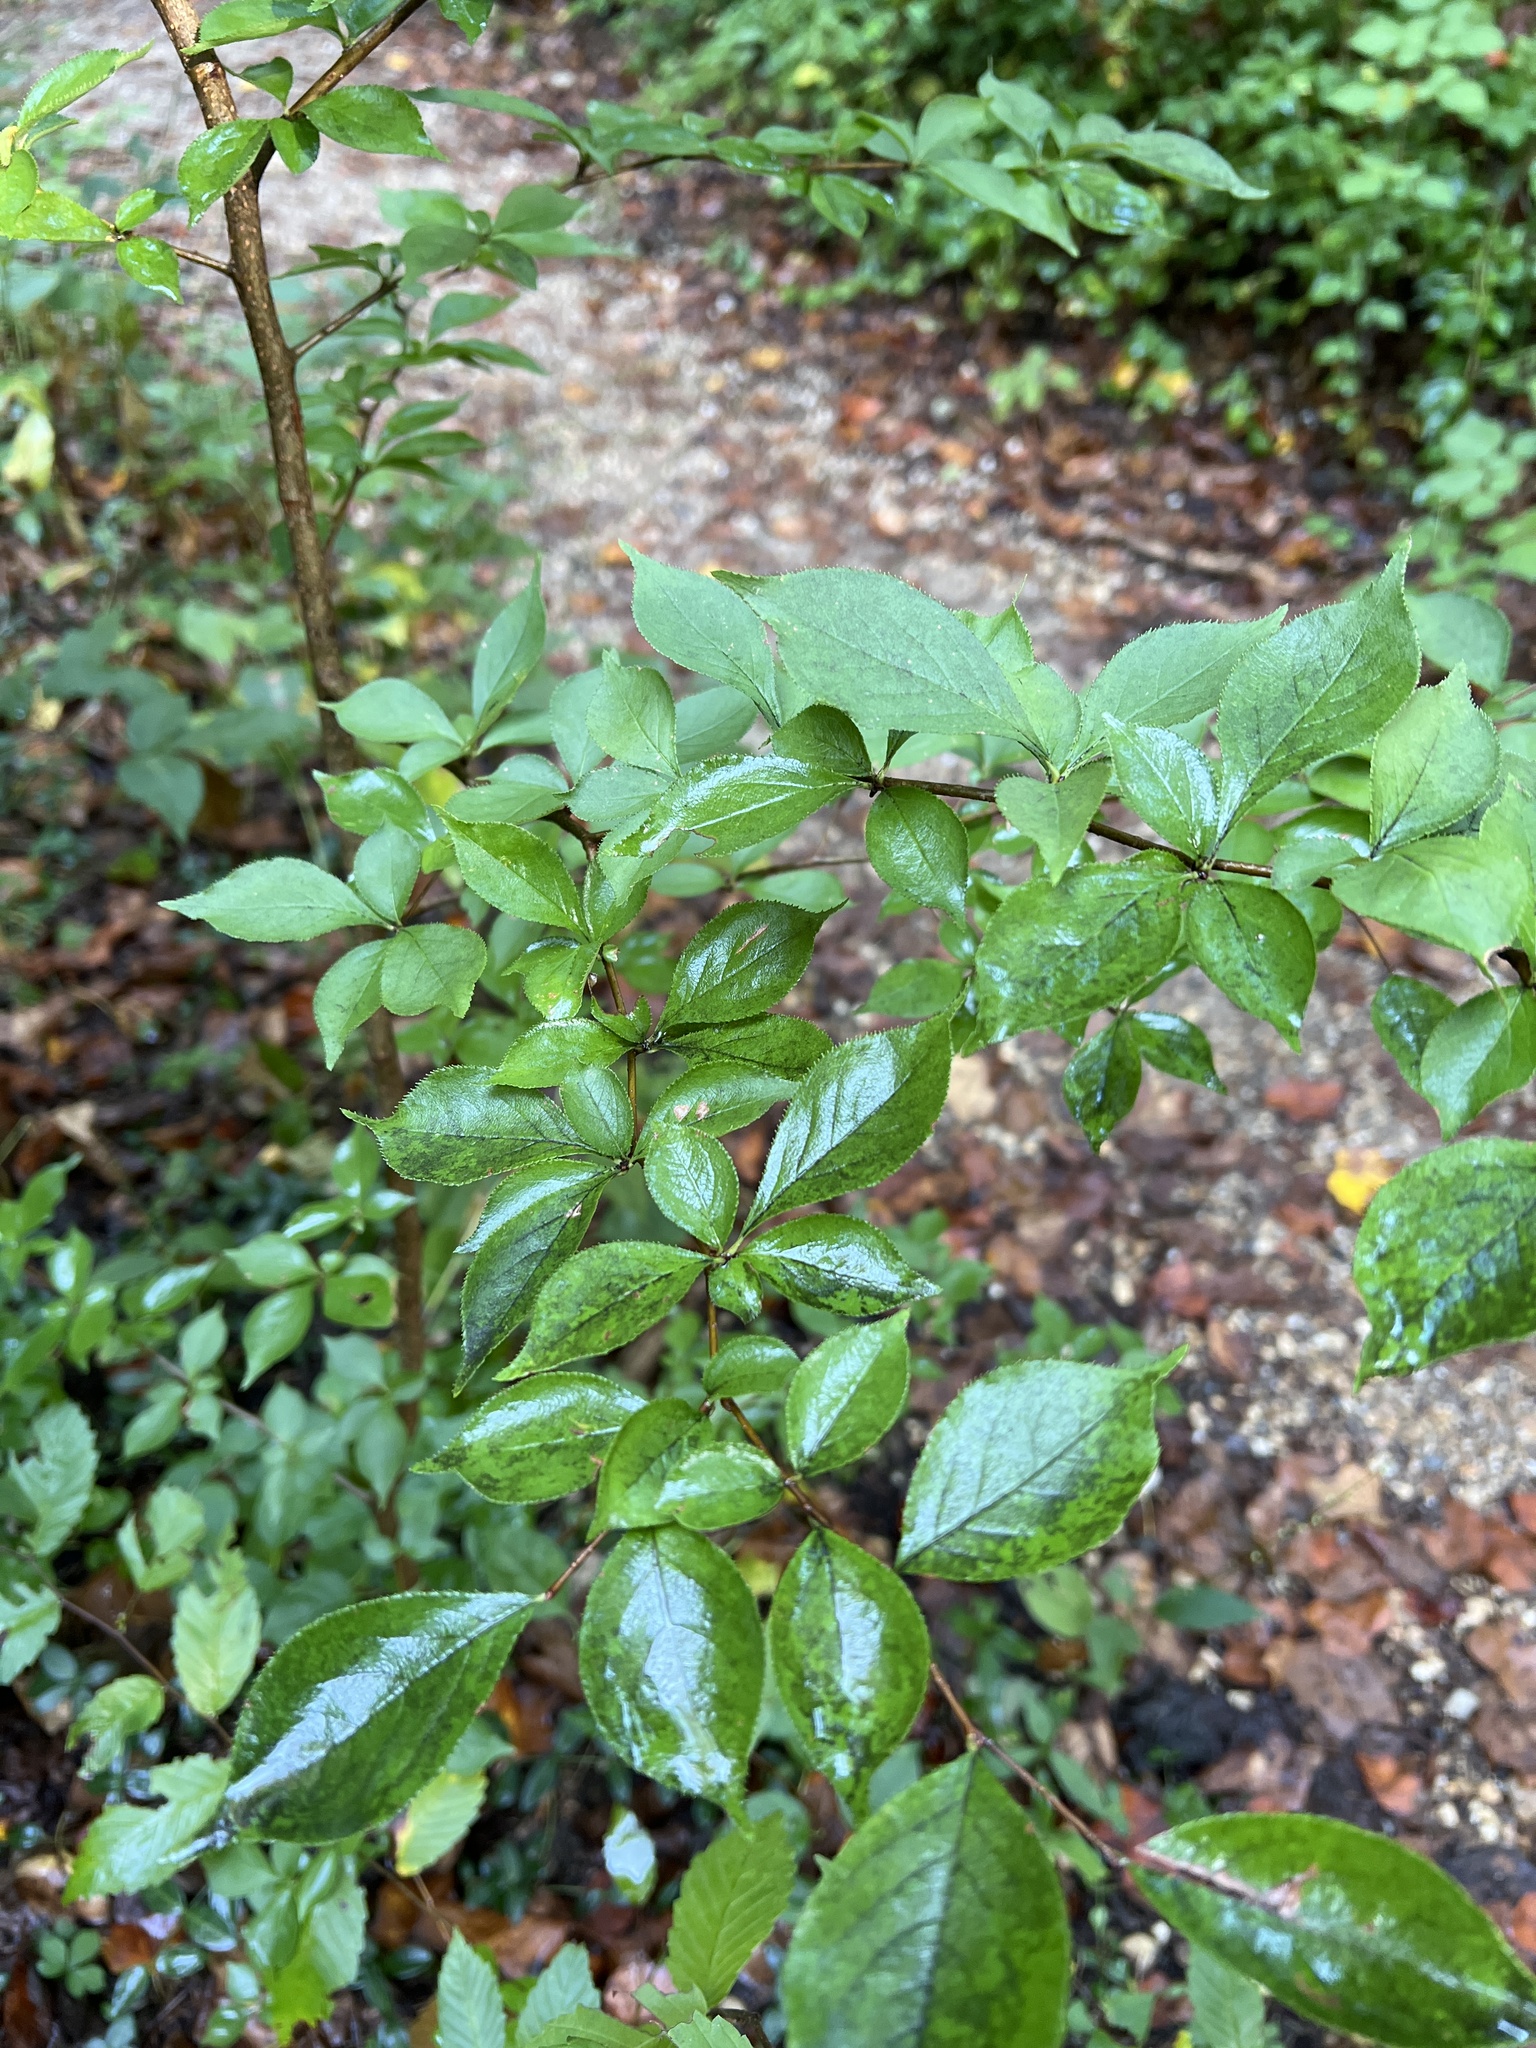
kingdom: Plantae
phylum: Tracheophyta
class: Magnoliopsida
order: Rosales
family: Rosaceae
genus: Pourthiaea
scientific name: Pourthiaea villosa
